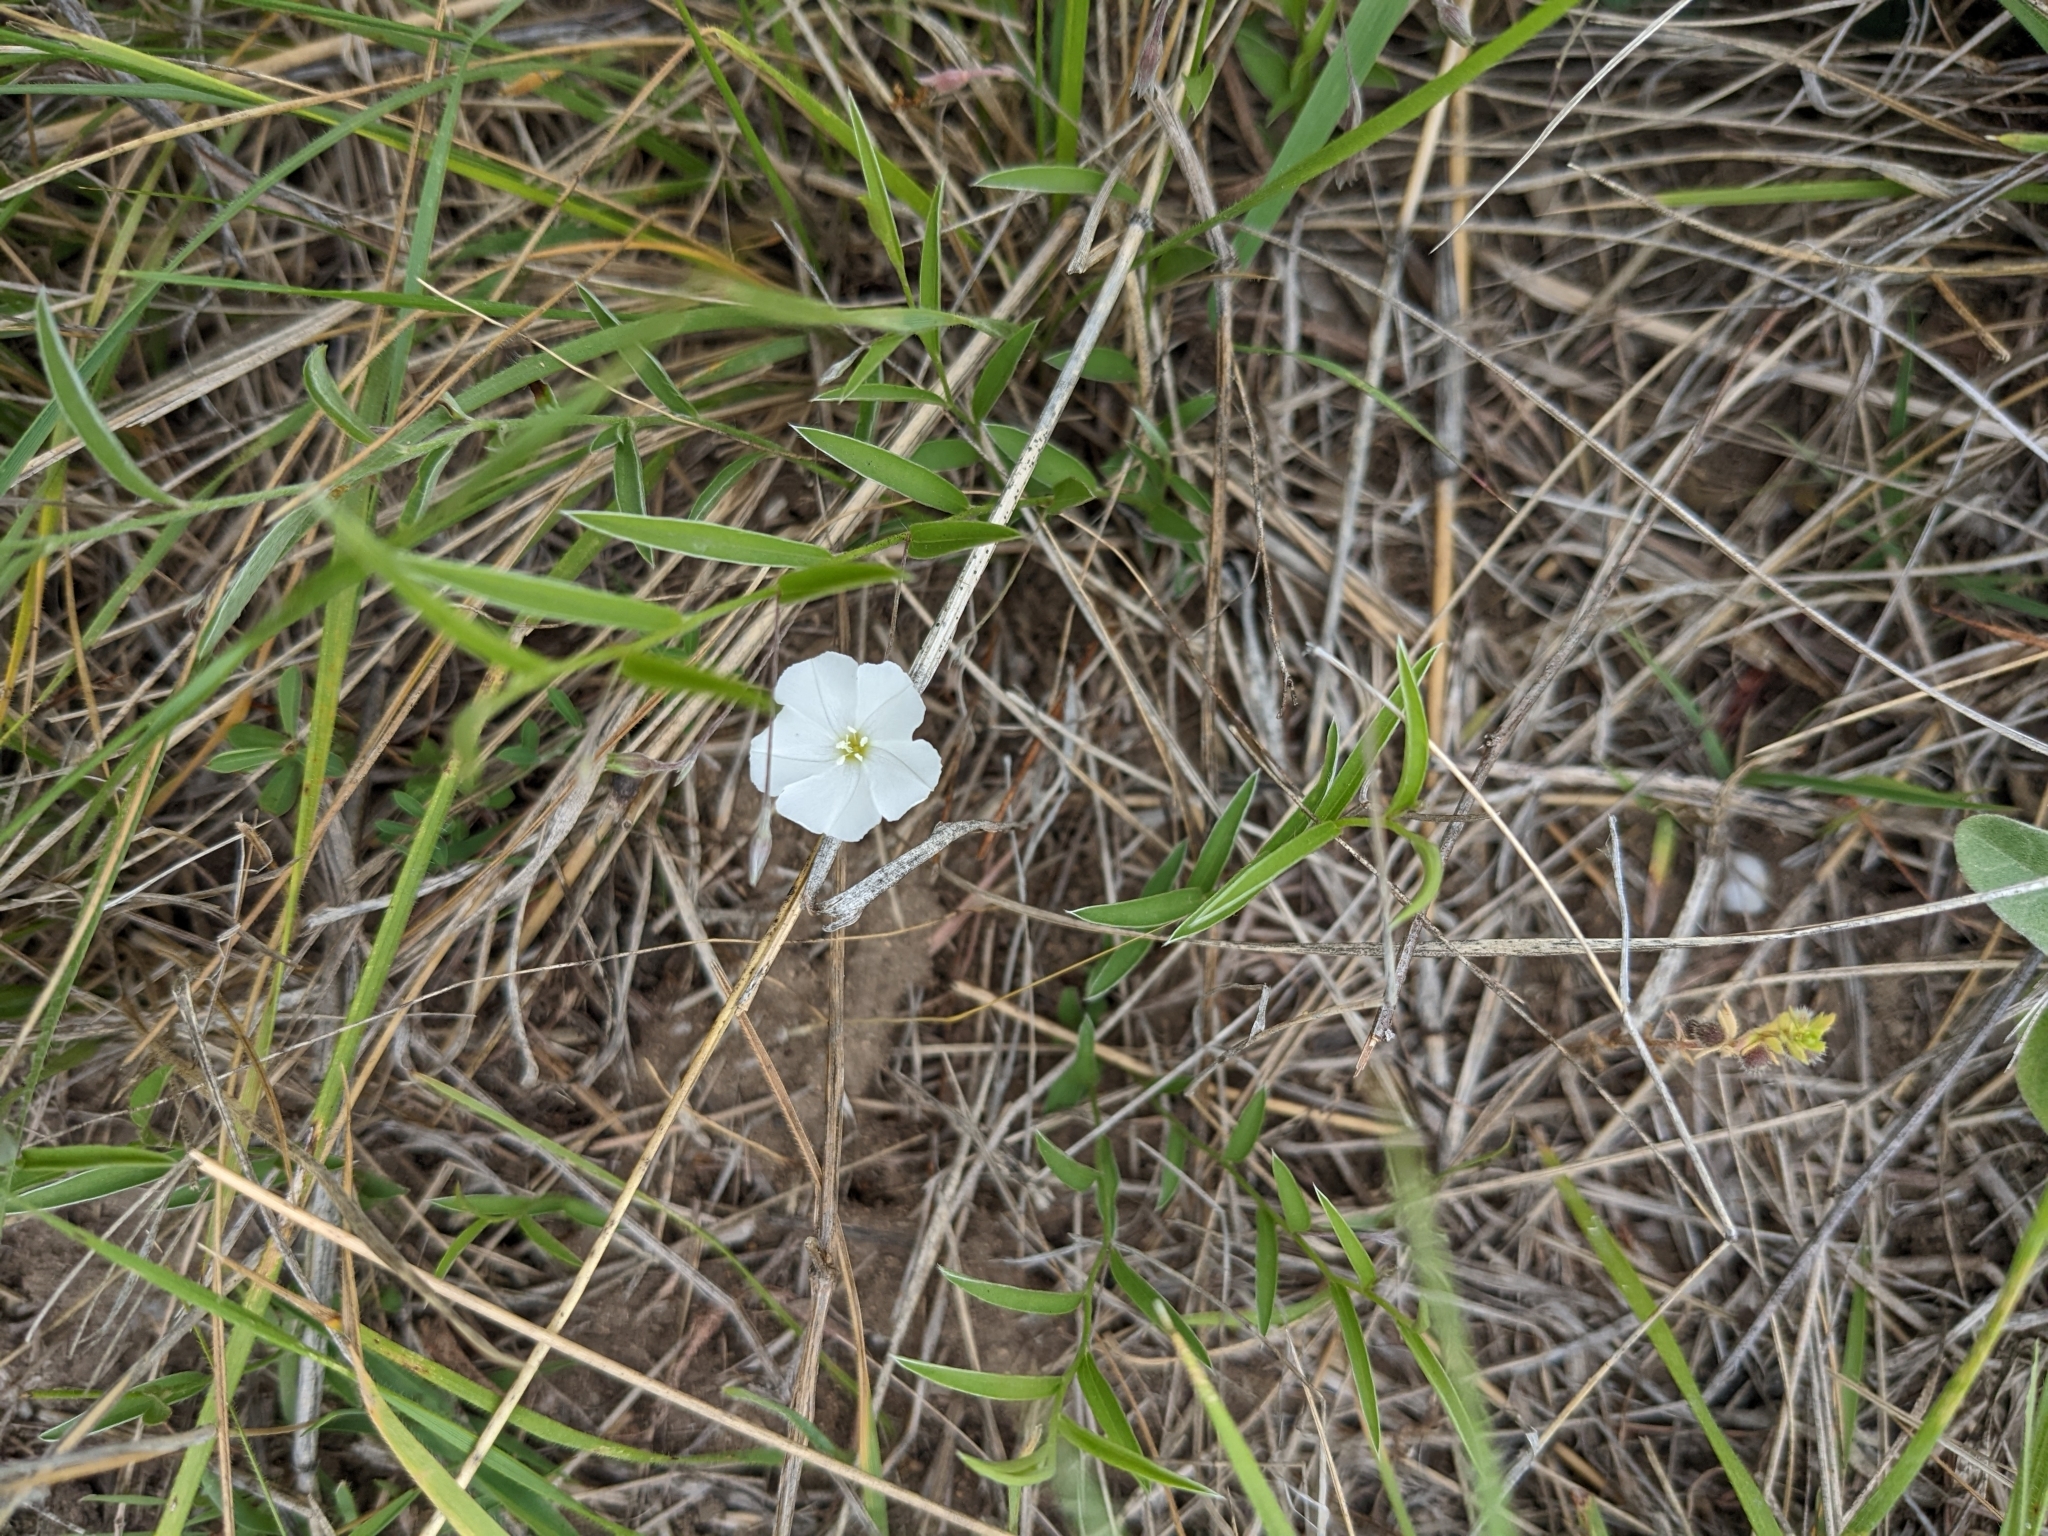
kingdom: Plantae
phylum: Tracheophyta
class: Magnoliopsida
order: Solanales
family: Convolvulaceae
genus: Evolvulus
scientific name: Evolvulus sericeus
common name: Blue dots
